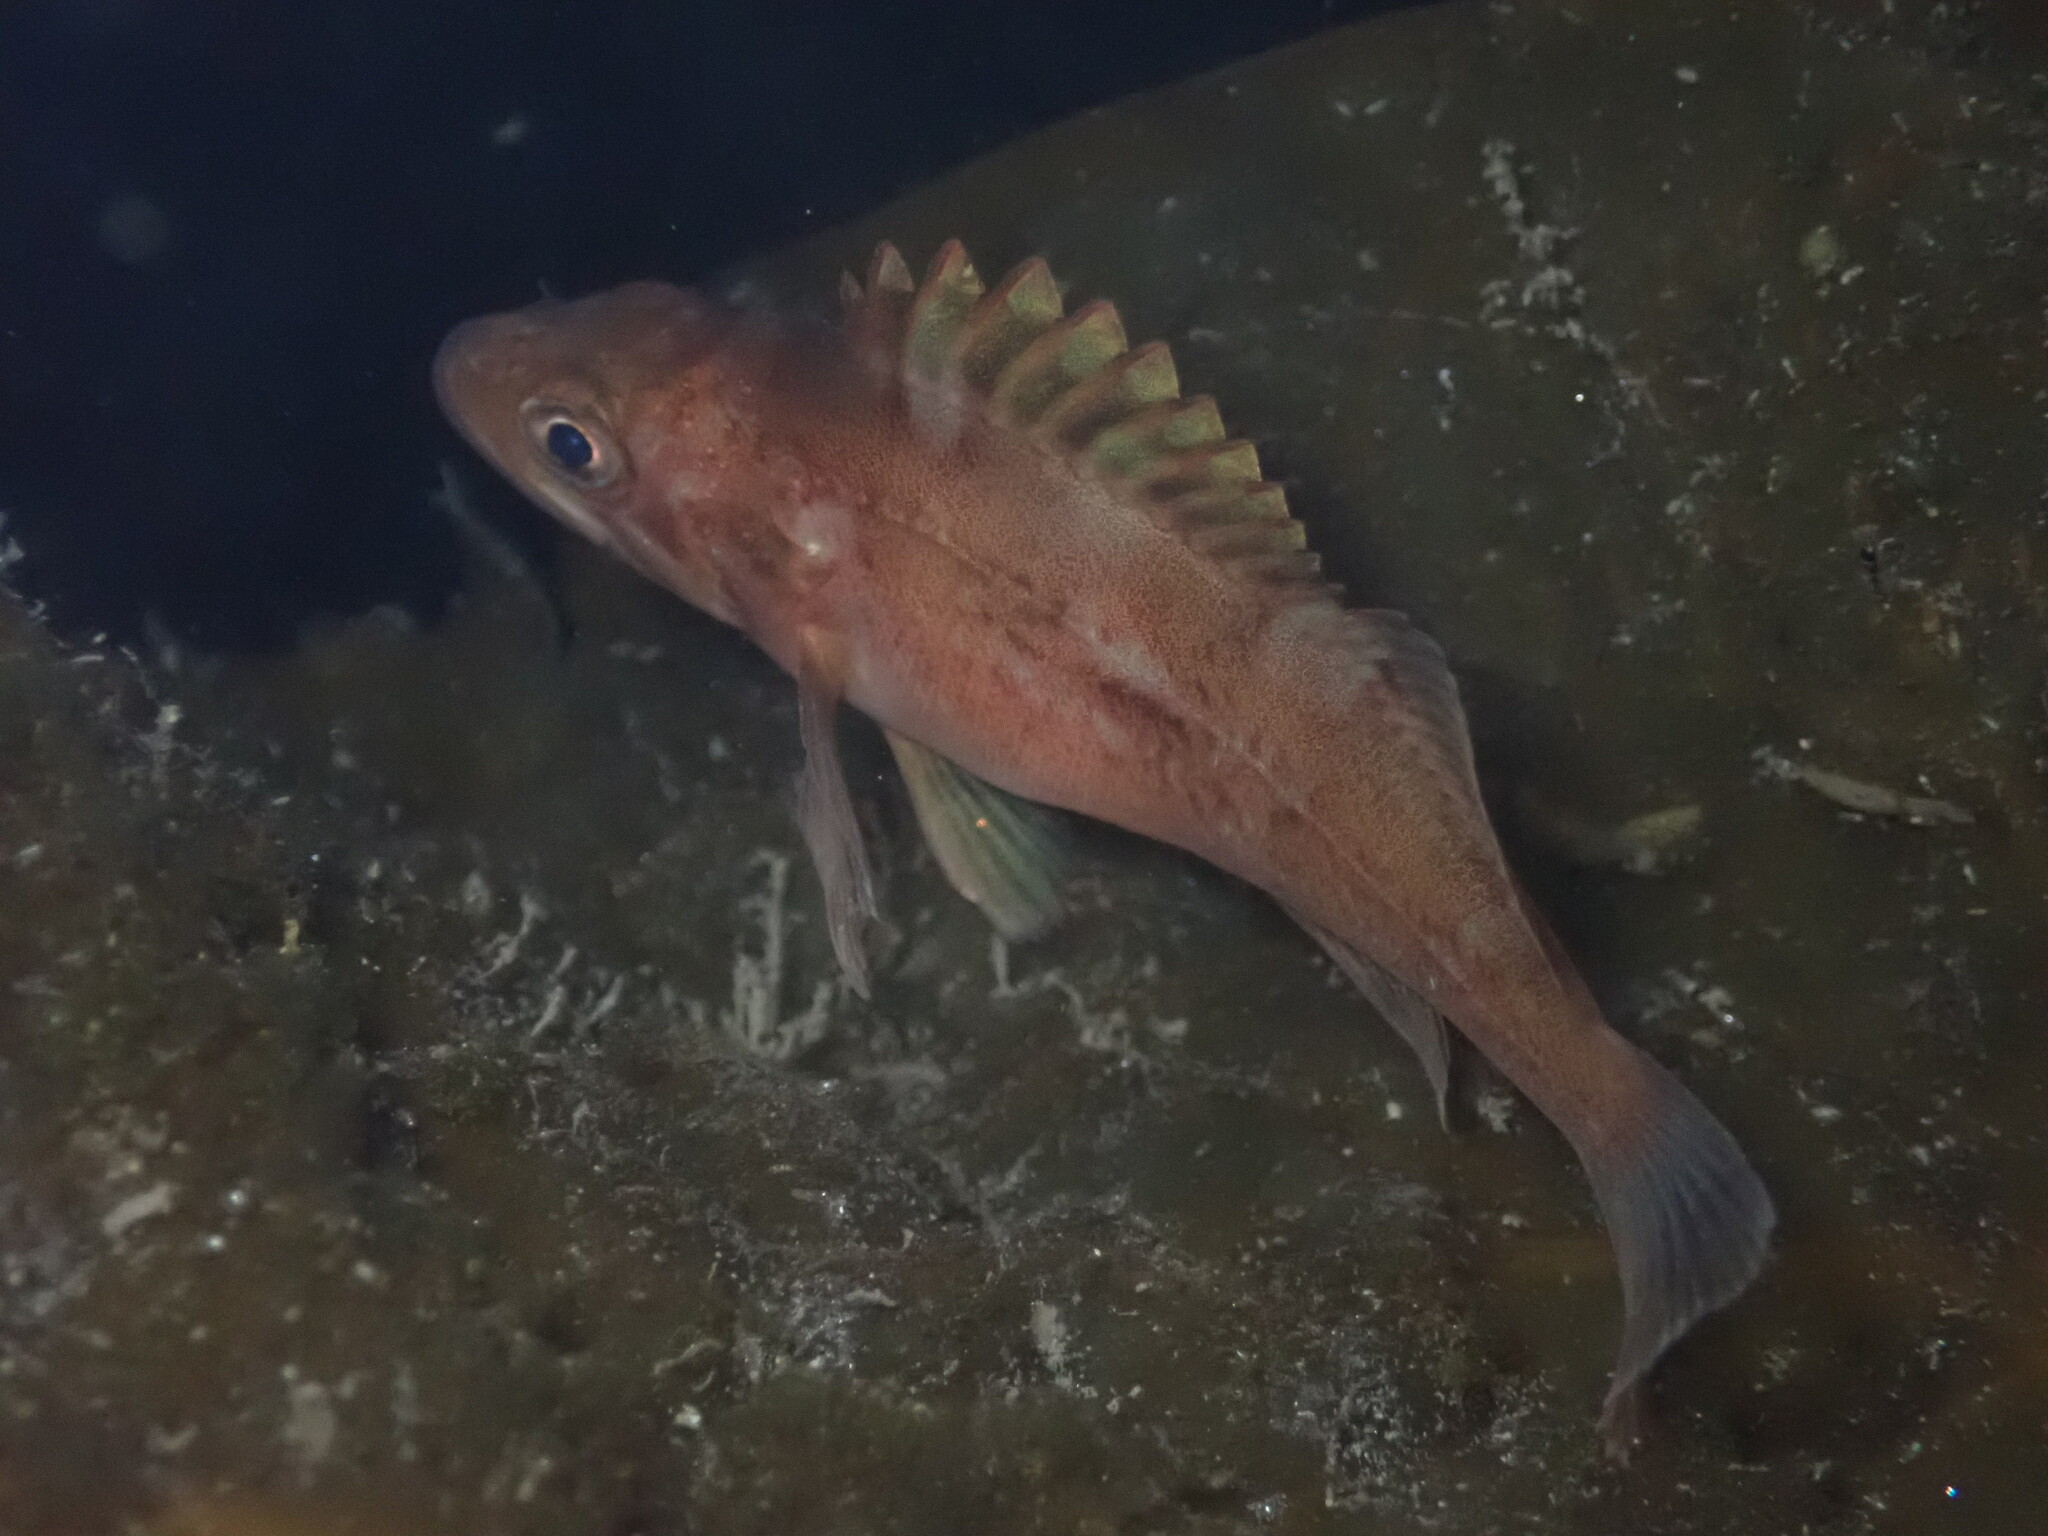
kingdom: Animalia
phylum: Chordata
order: Scorpaeniformes
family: Sebastidae
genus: Sebastes
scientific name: Sebastes carnatus
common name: Gopher rockfish
